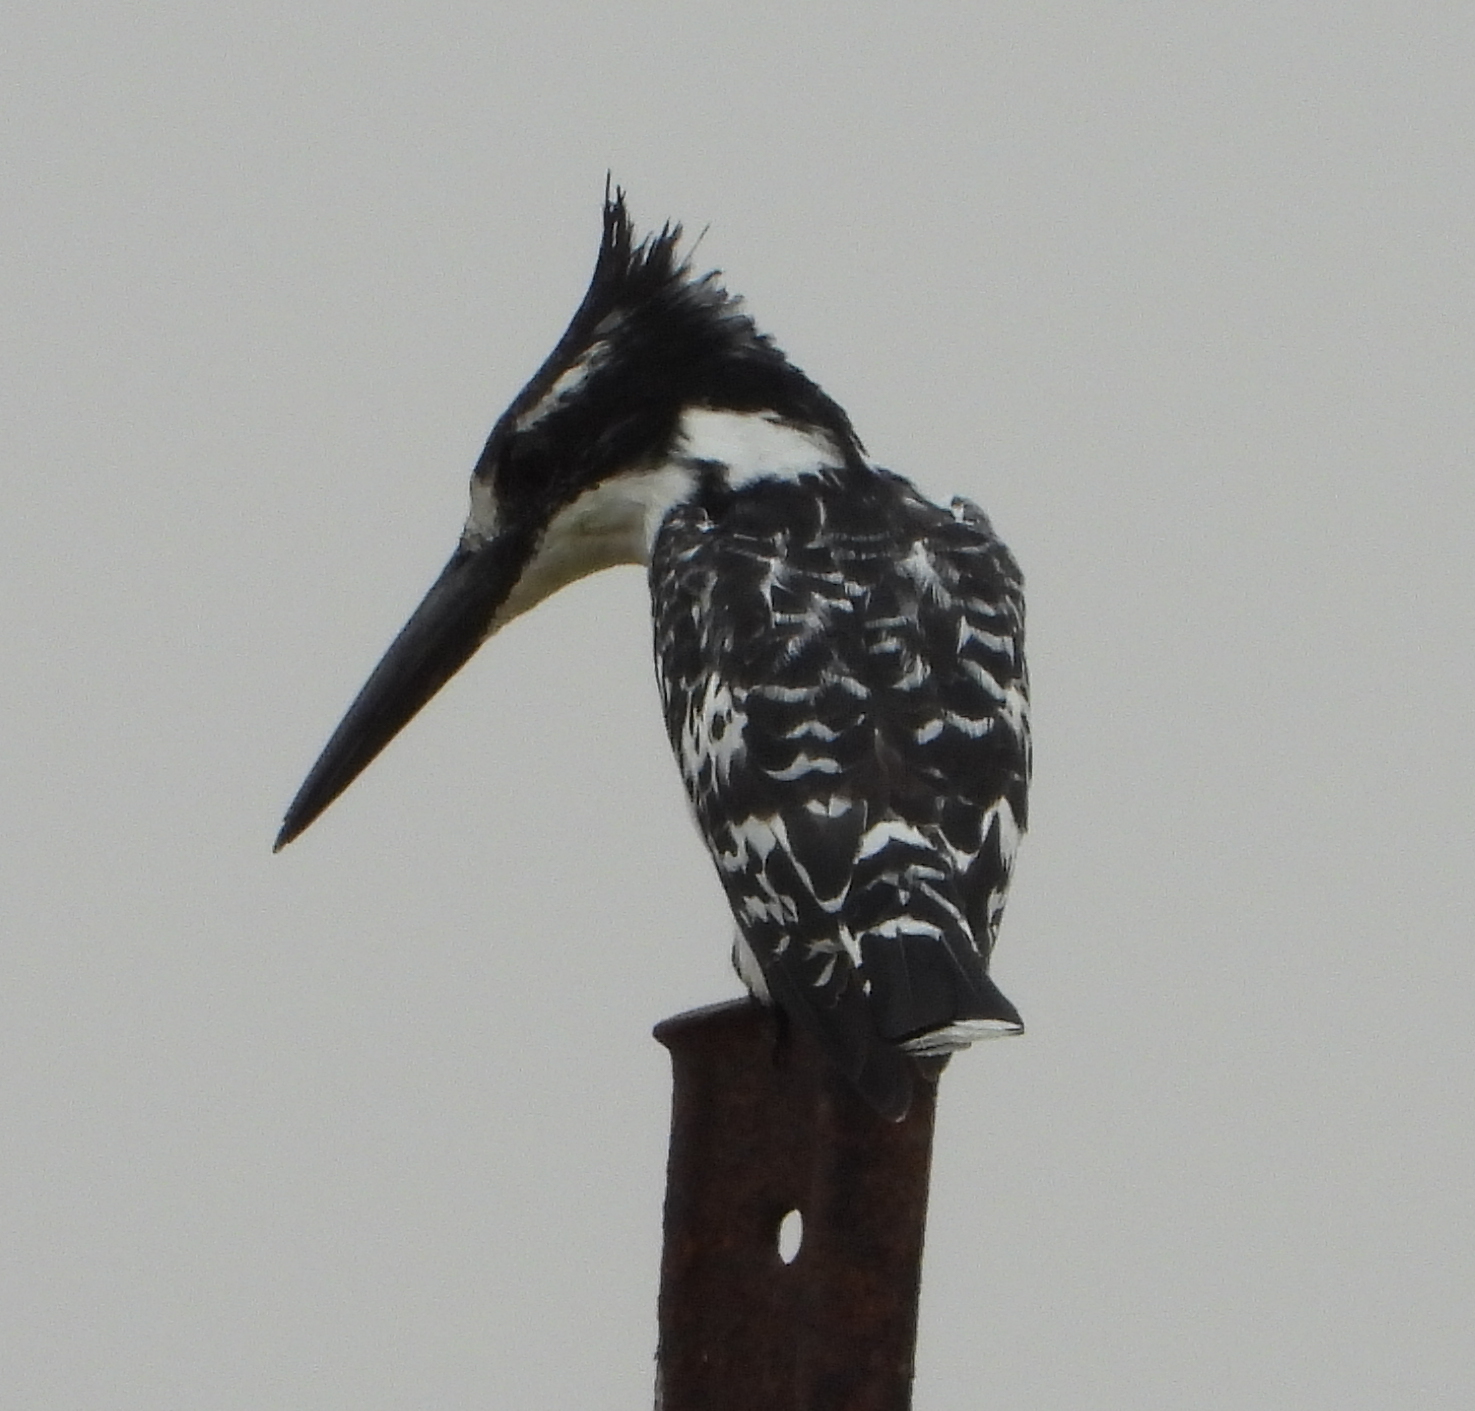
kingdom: Animalia
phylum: Chordata
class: Aves
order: Coraciiformes
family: Alcedinidae
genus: Ceryle
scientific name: Ceryle rudis
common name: Pied kingfisher
